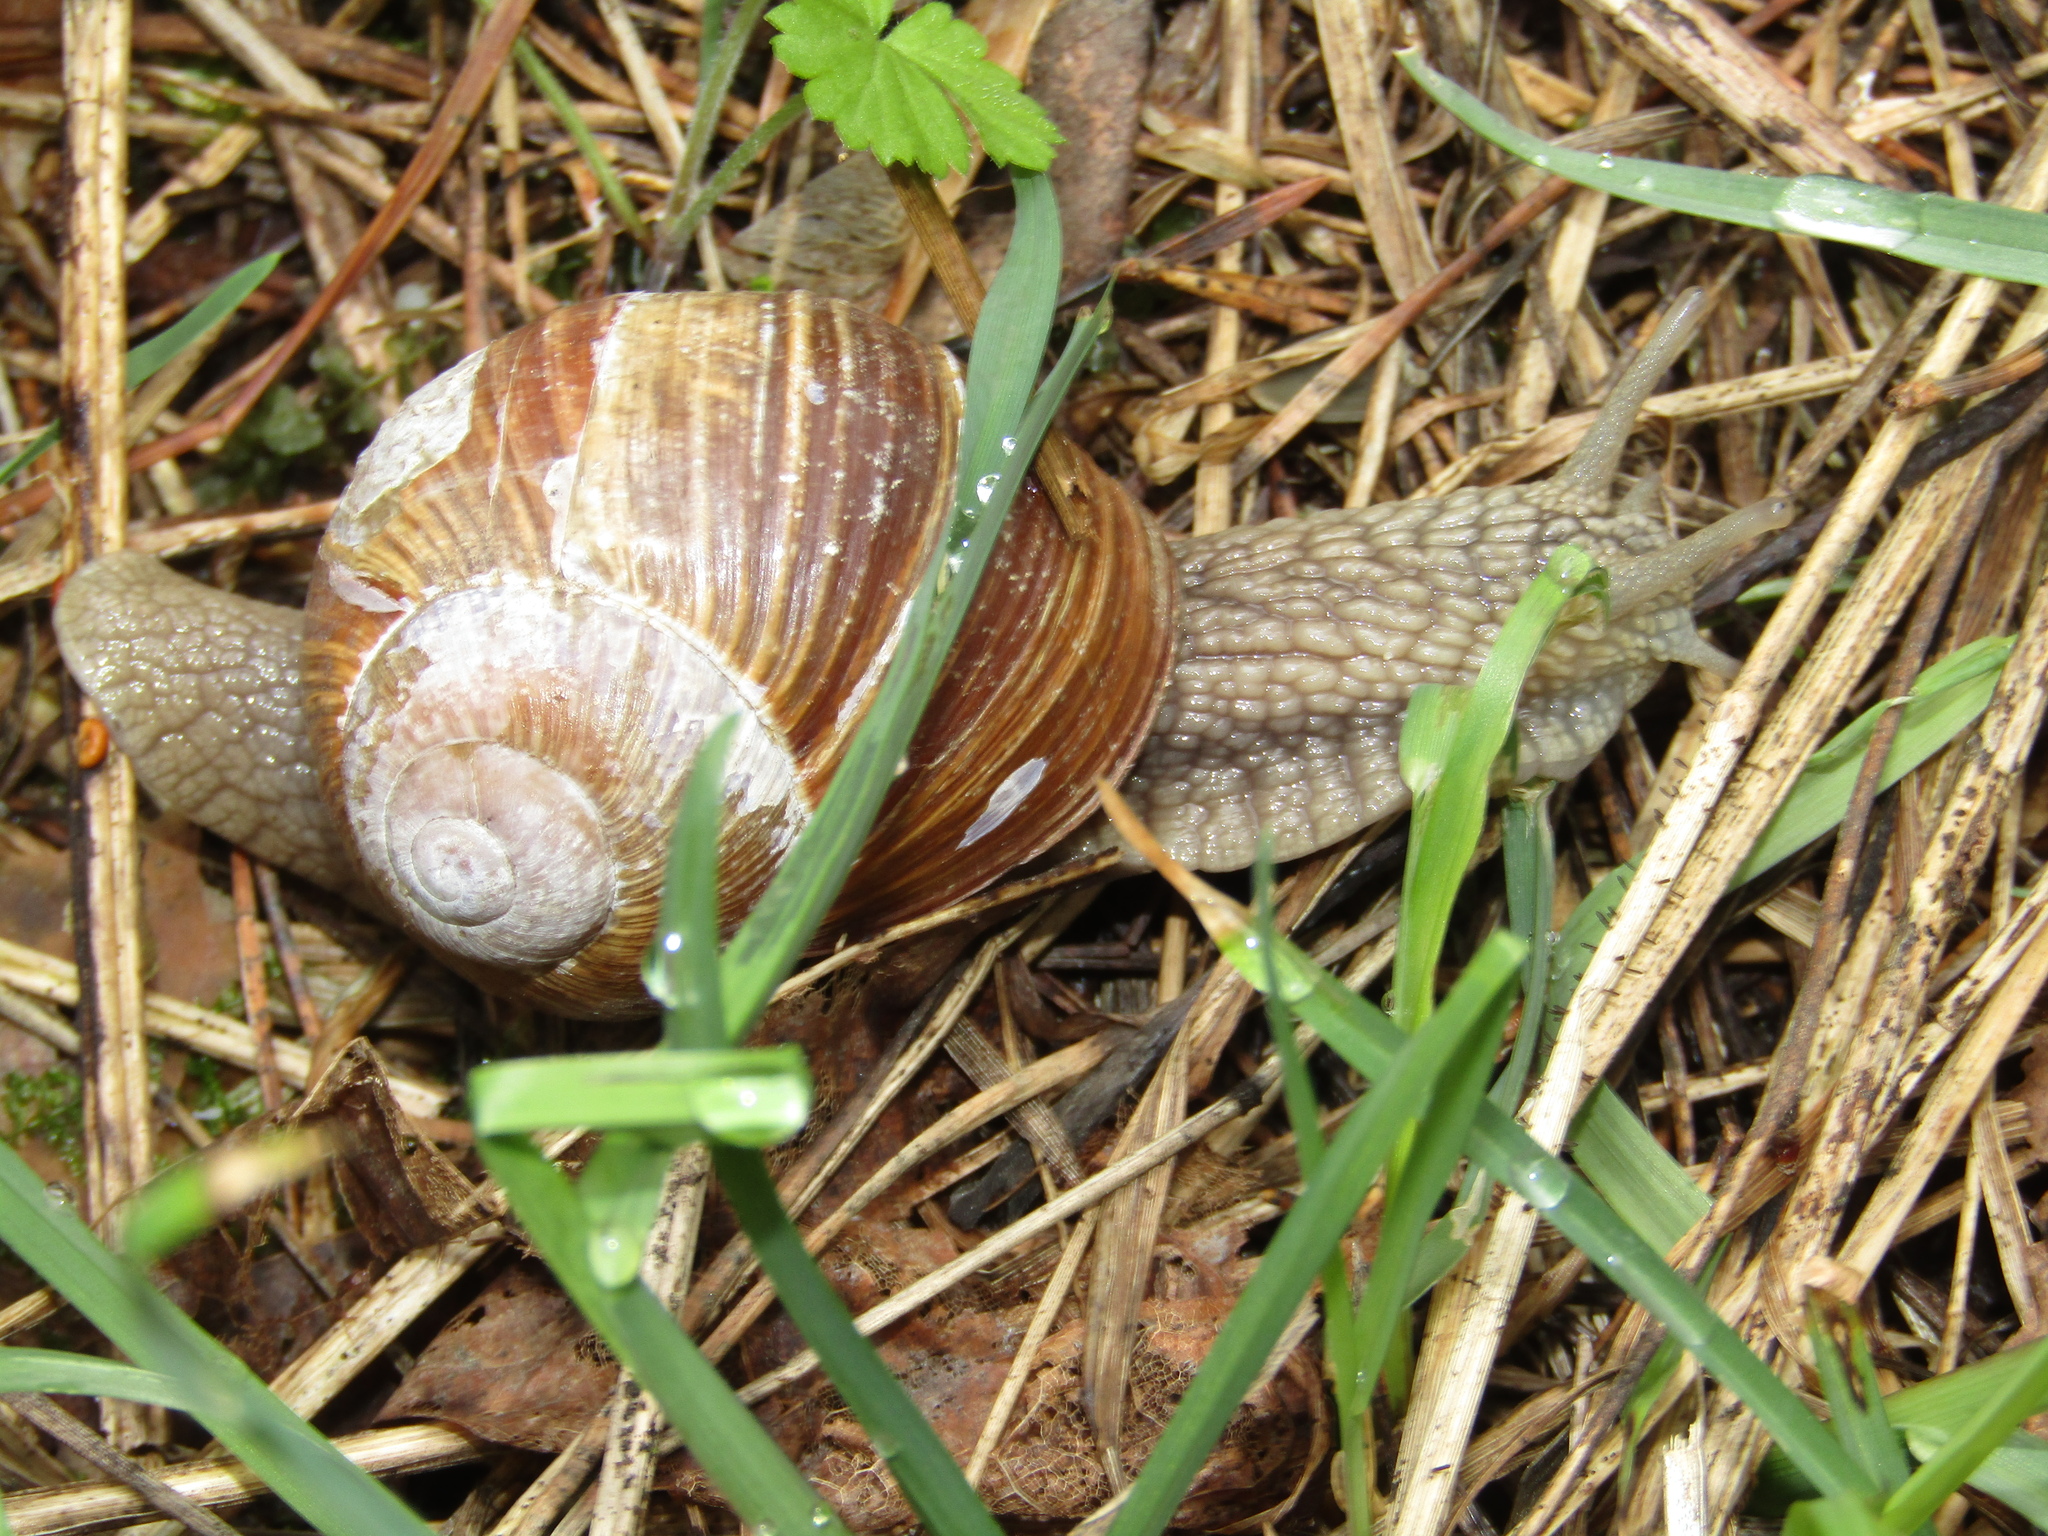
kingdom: Animalia
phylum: Mollusca
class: Gastropoda
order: Stylommatophora
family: Helicidae
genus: Helix
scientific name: Helix pomatia
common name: Roman snail
